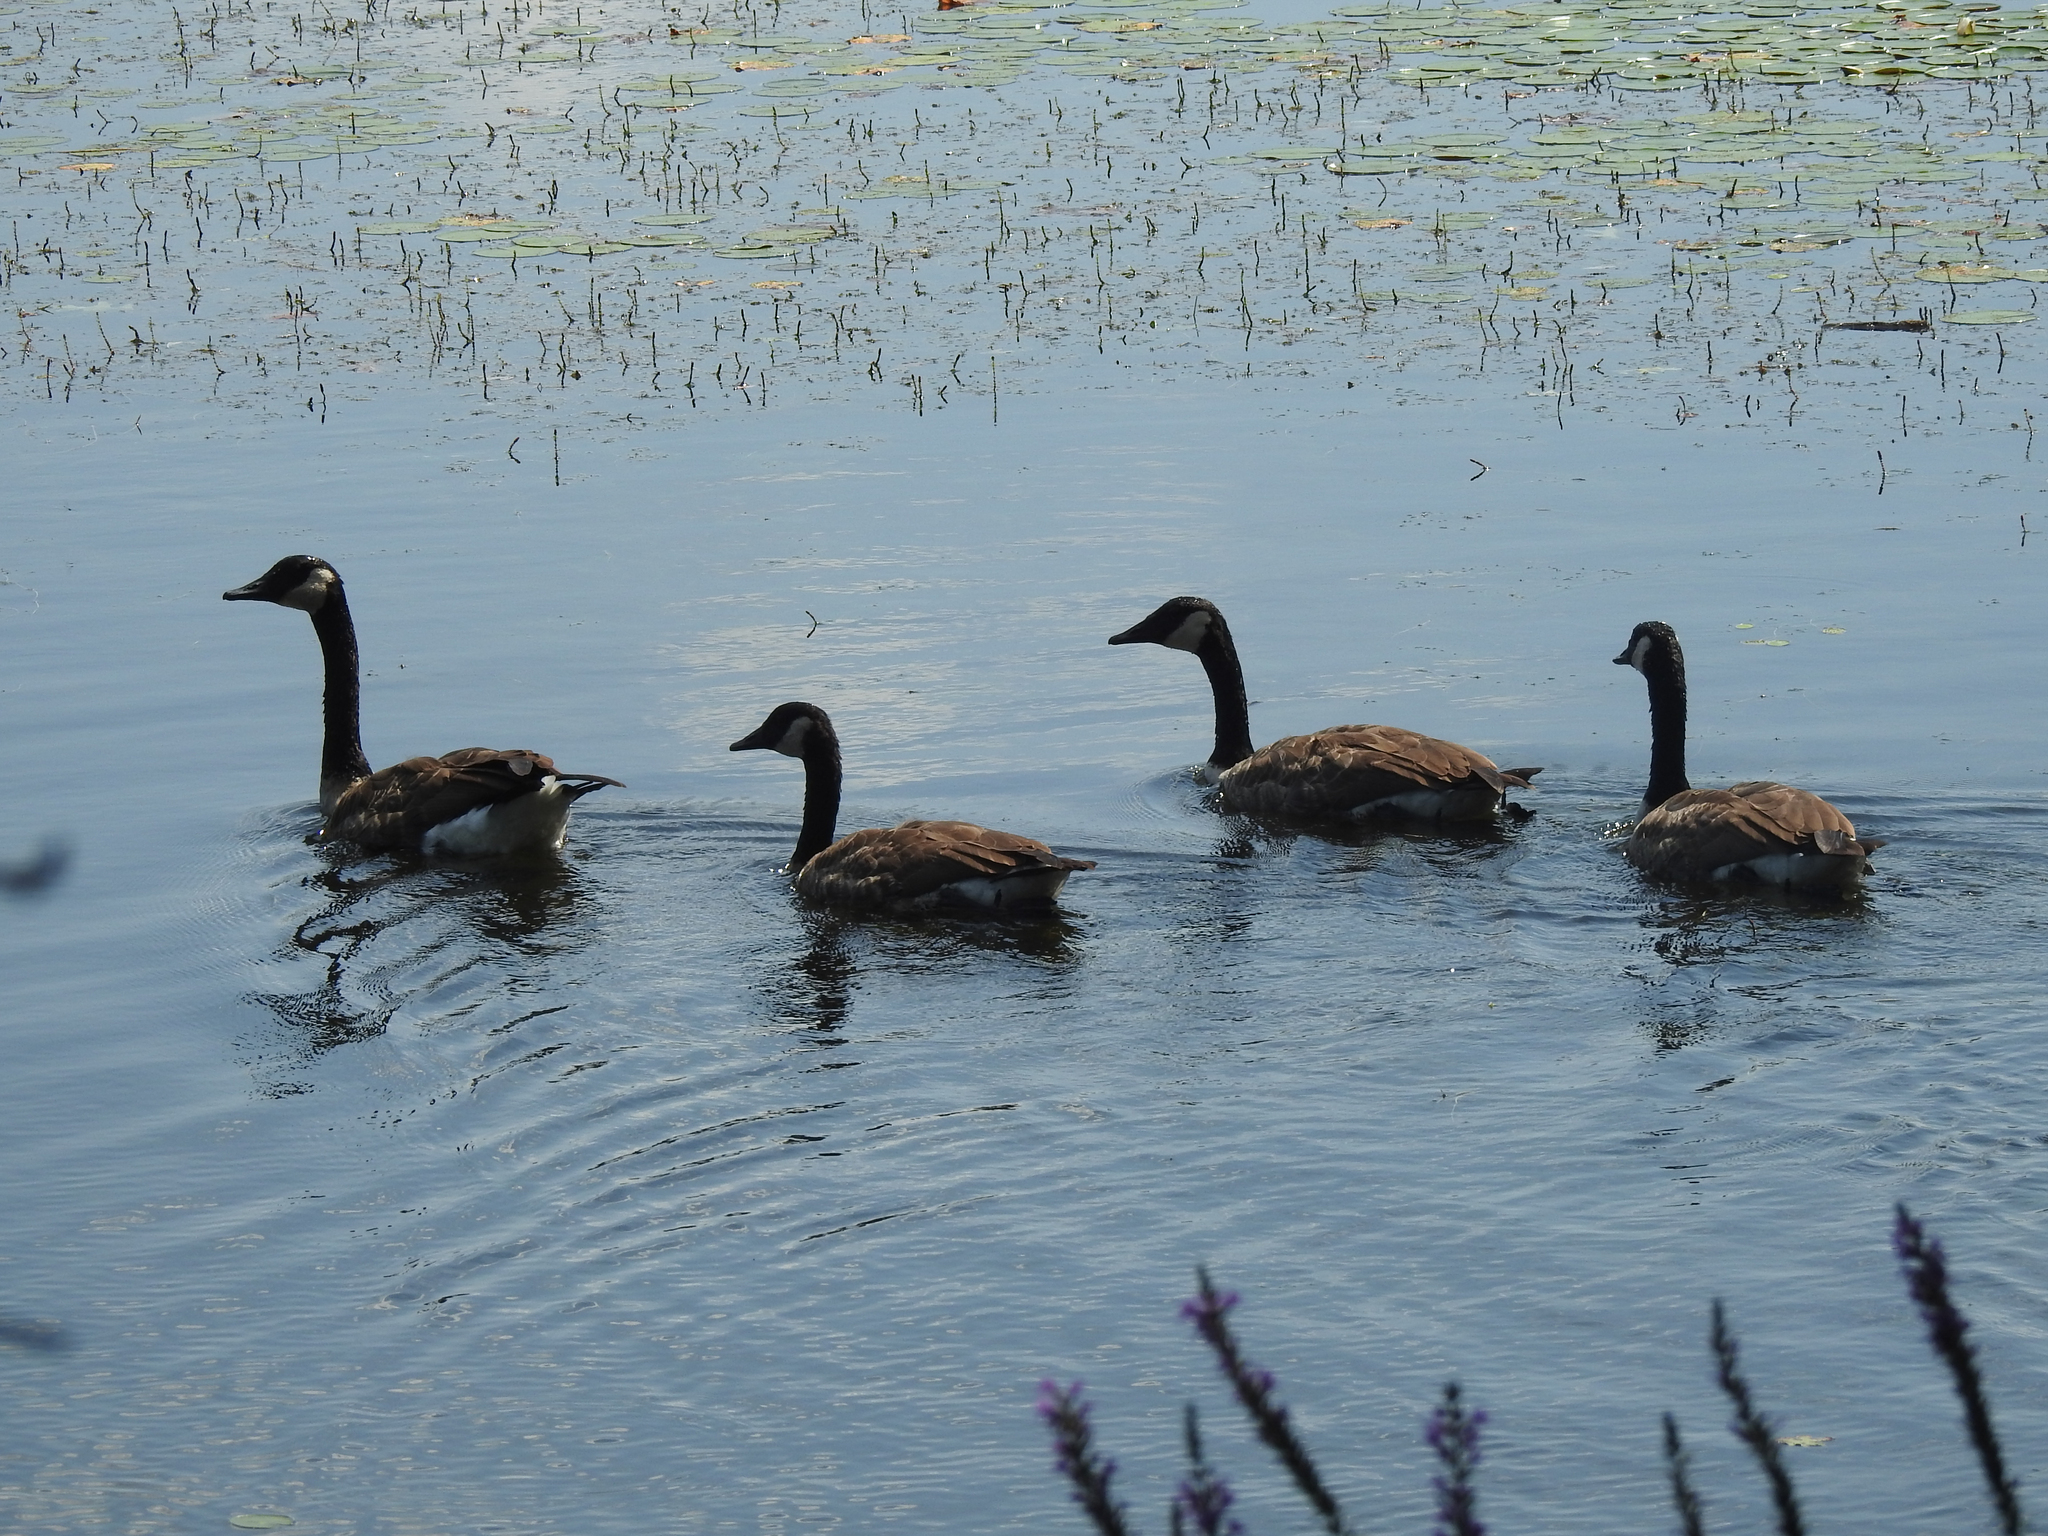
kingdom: Animalia
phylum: Chordata
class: Aves
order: Anseriformes
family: Anatidae
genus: Branta
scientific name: Branta canadensis
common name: Canada goose
